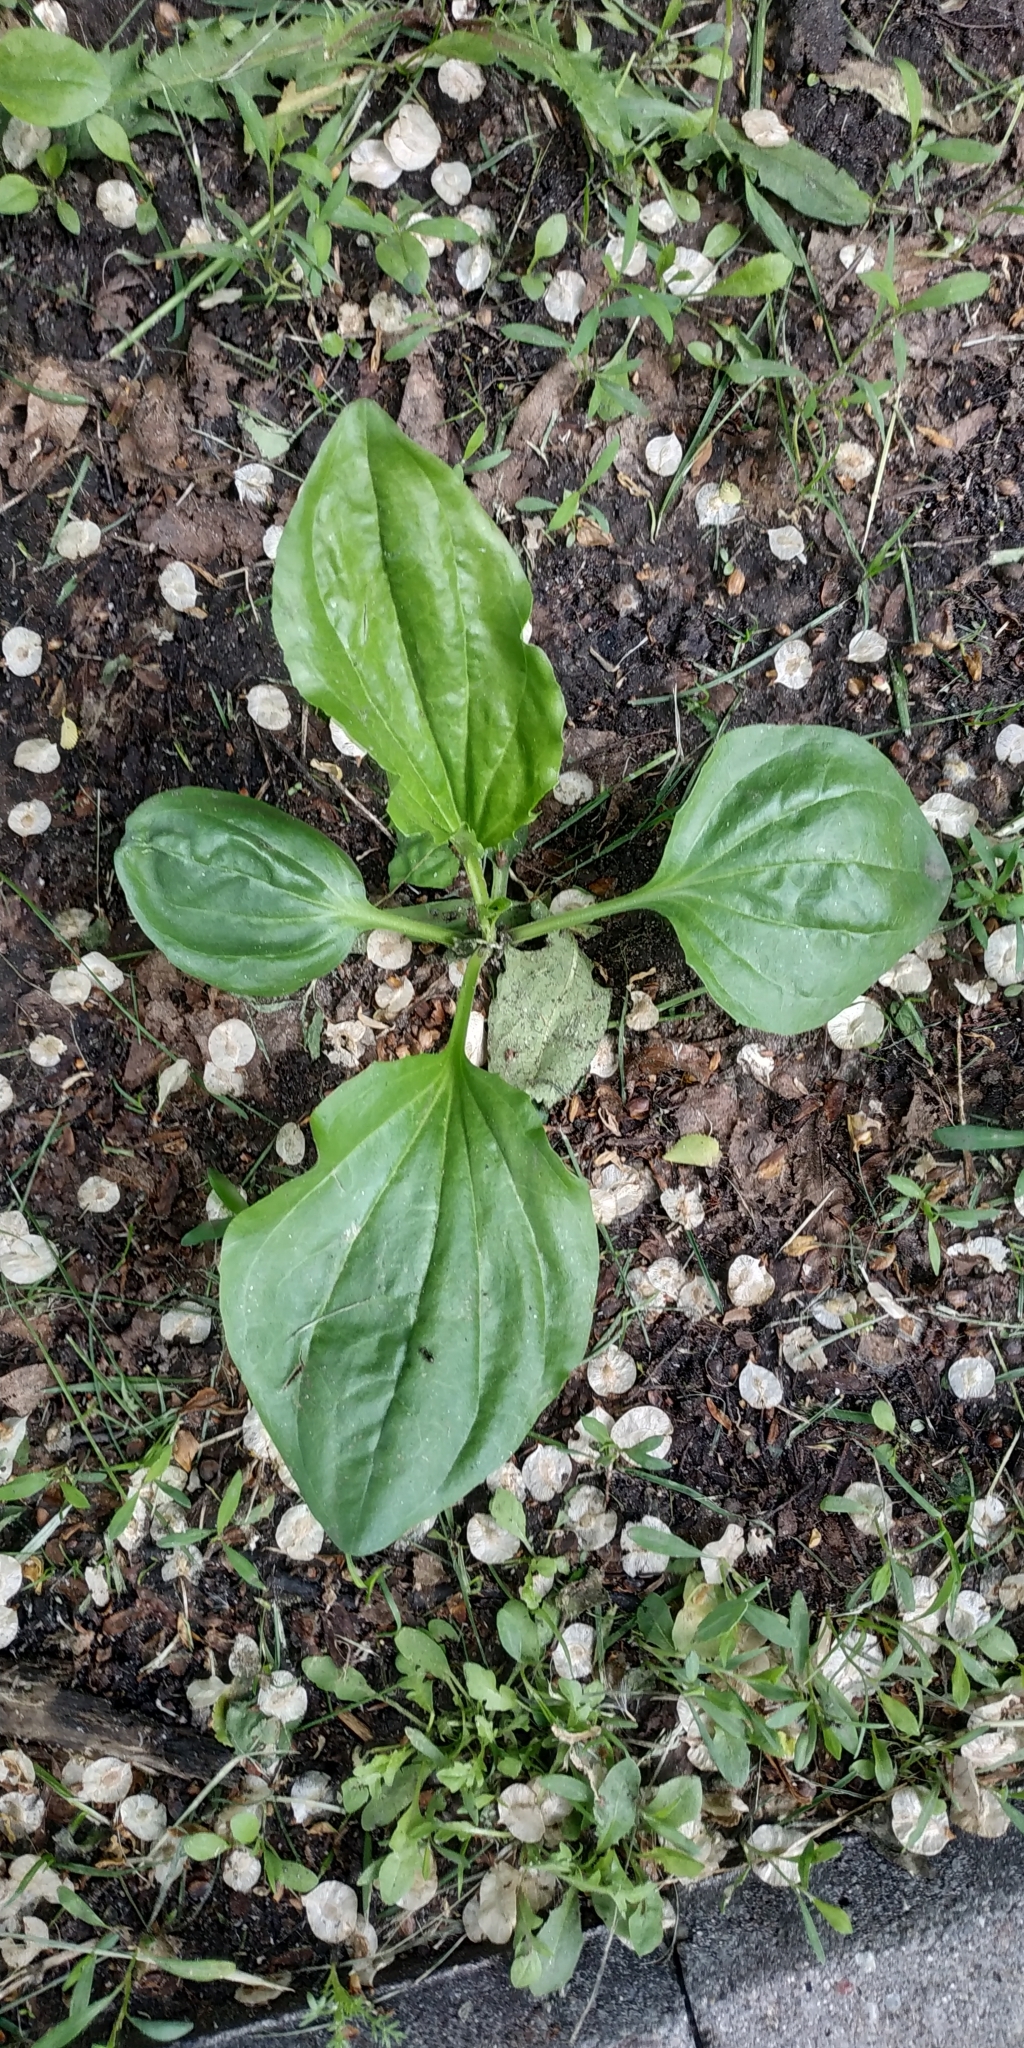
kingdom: Plantae
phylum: Tracheophyta
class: Magnoliopsida
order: Lamiales
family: Plantaginaceae
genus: Plantago
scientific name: Plantago major
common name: Common plantain
